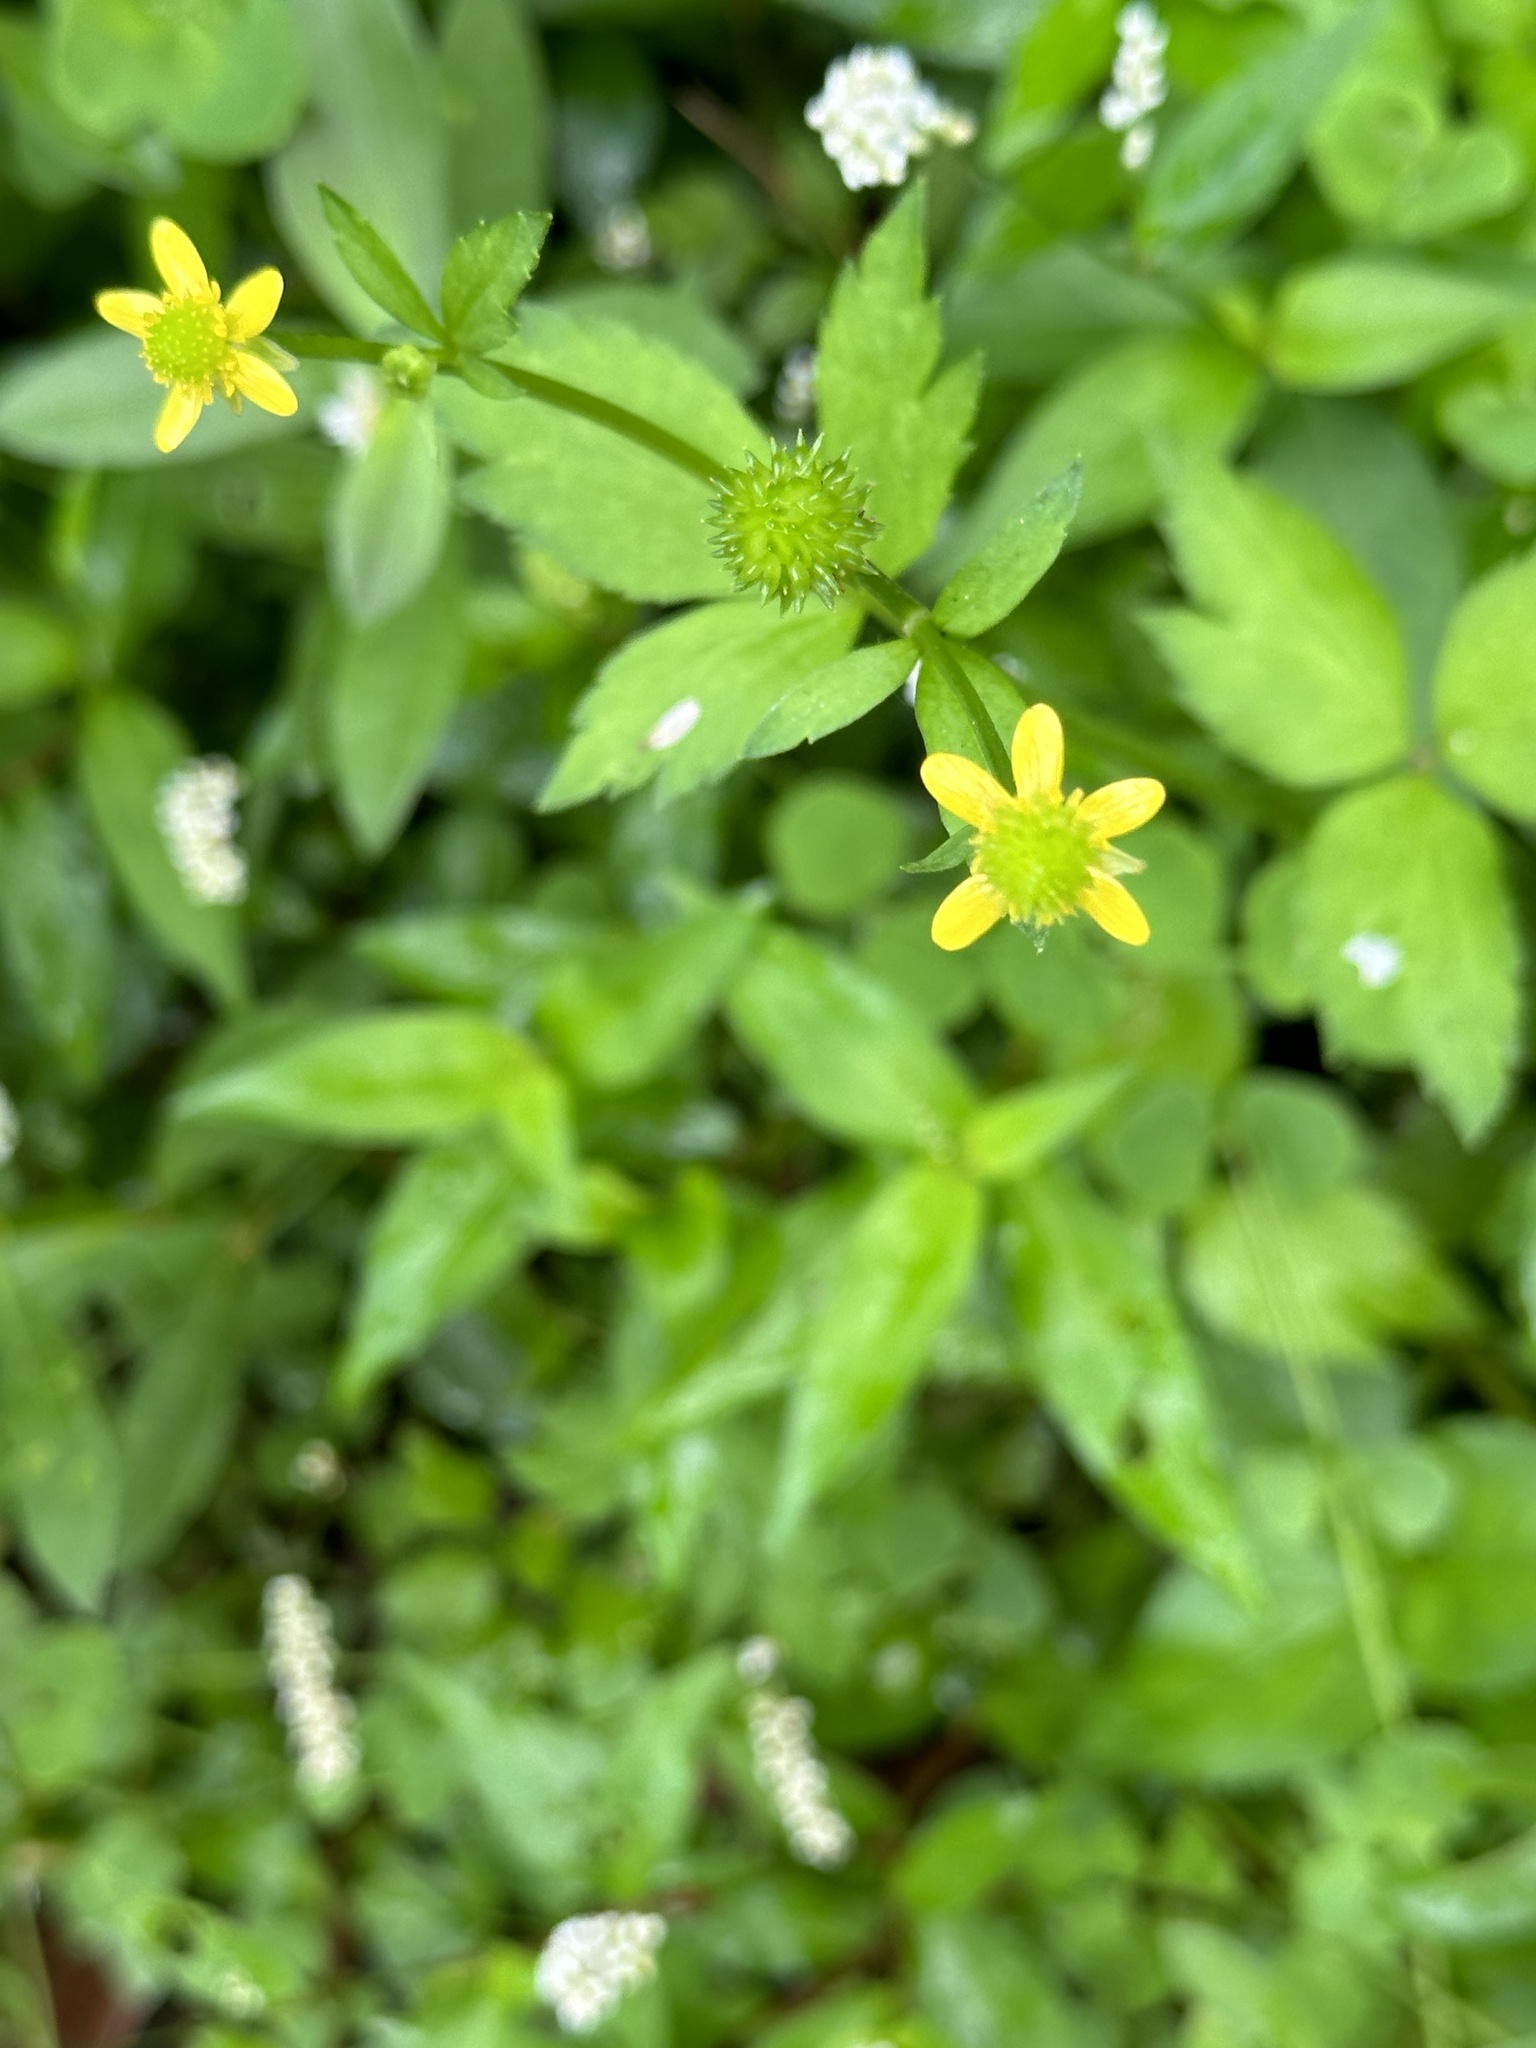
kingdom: Plantae
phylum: Tracheophyta
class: Magnoliopsida
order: Ranunculales
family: Ranunculaceae
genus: Ranunculus
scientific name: Ranunculus silerifolius
